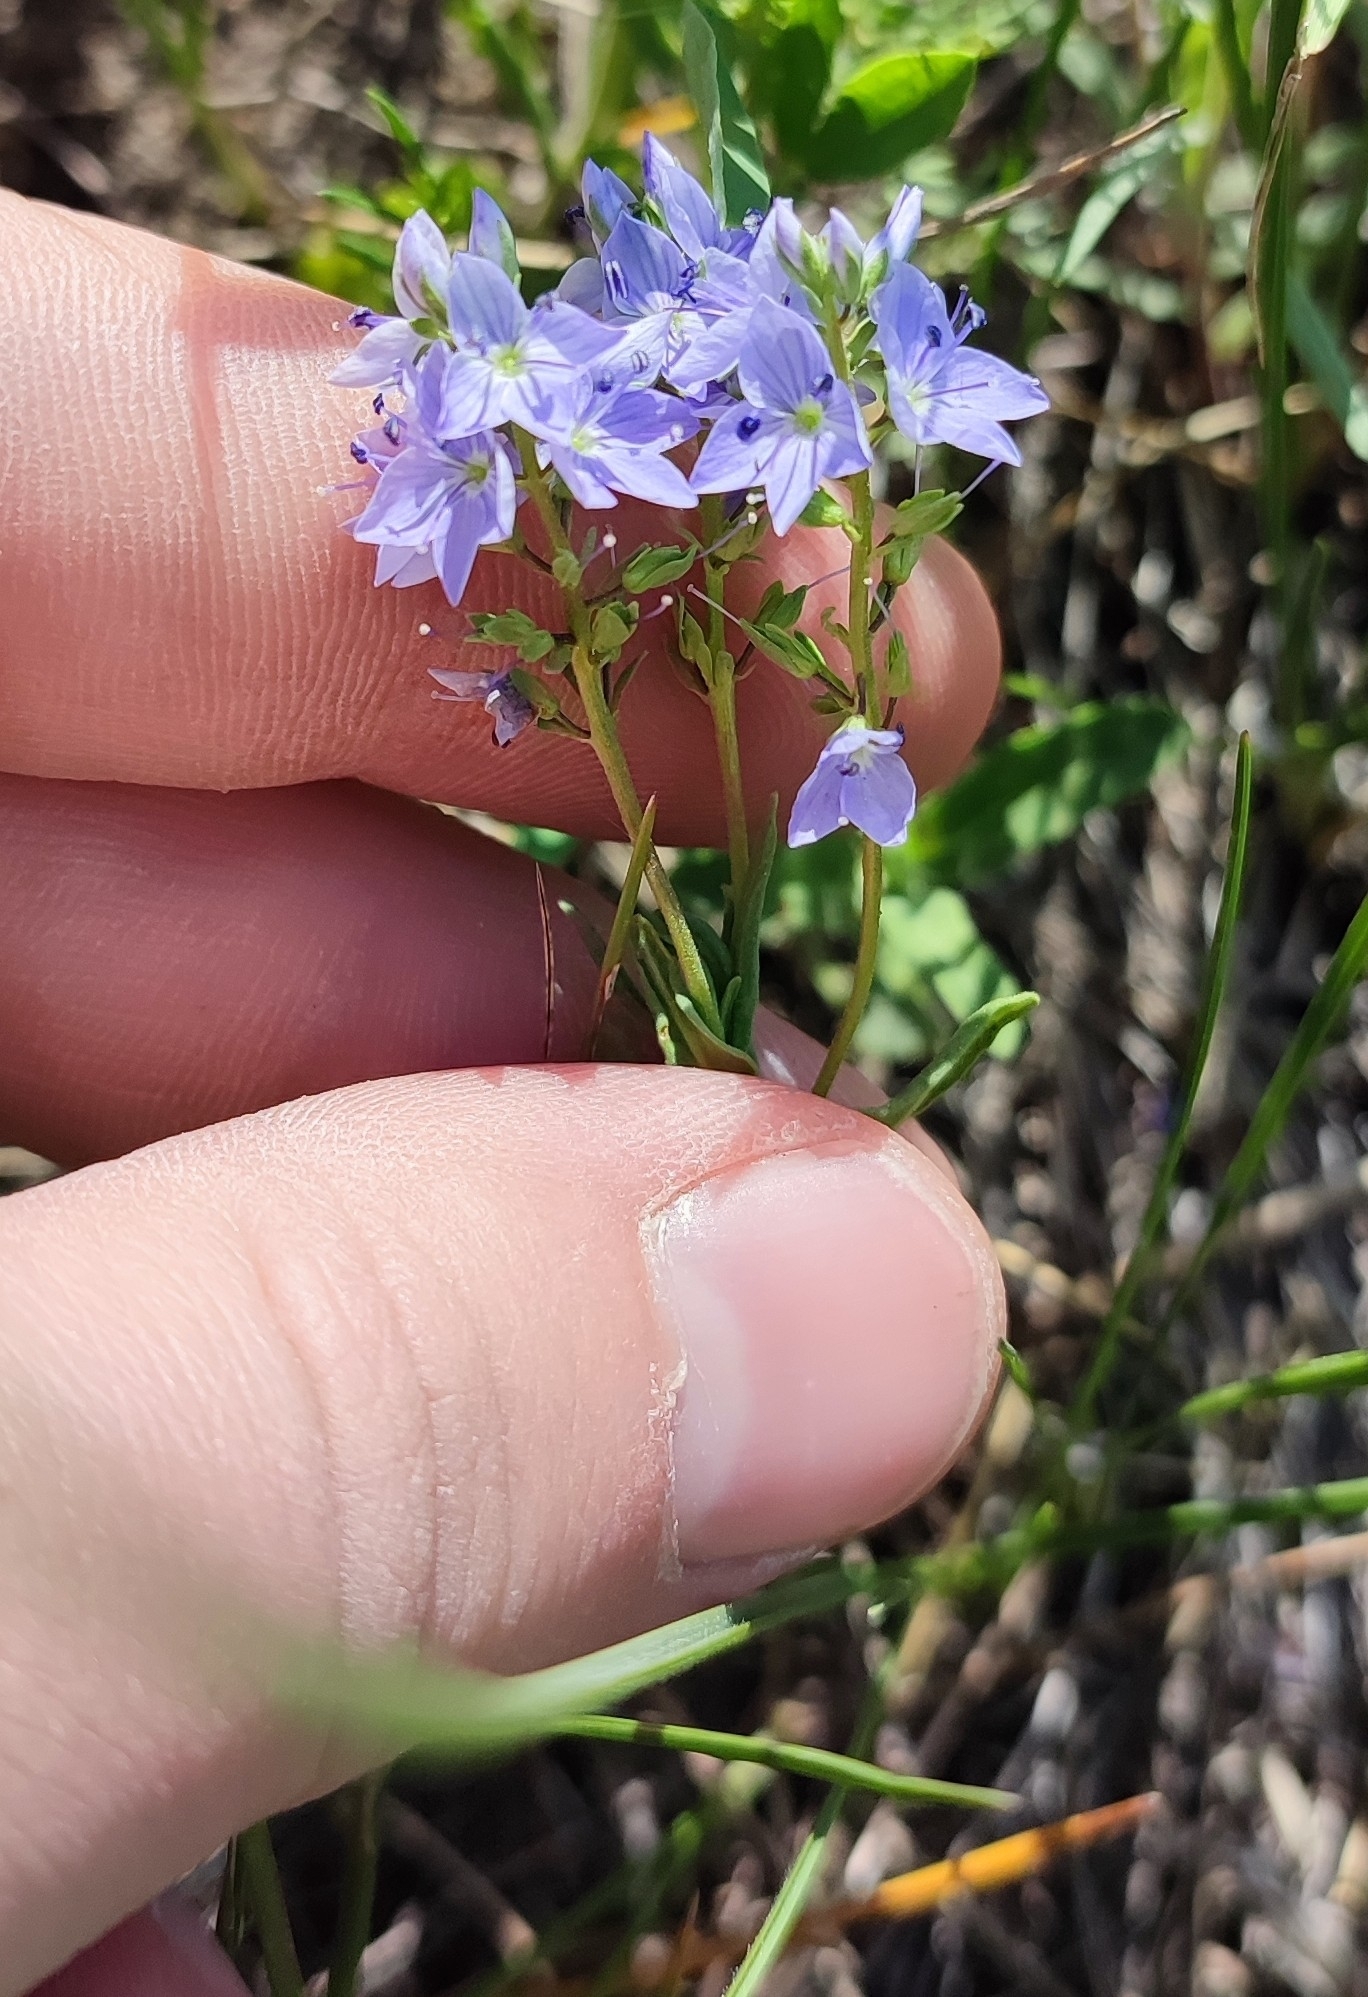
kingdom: Plantae
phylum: Tracheophyta
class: Magnoliopsida
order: Lamiales
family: Plantaginaceae
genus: Veronica
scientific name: Veronica prostrata
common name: Prostrate speedwell
